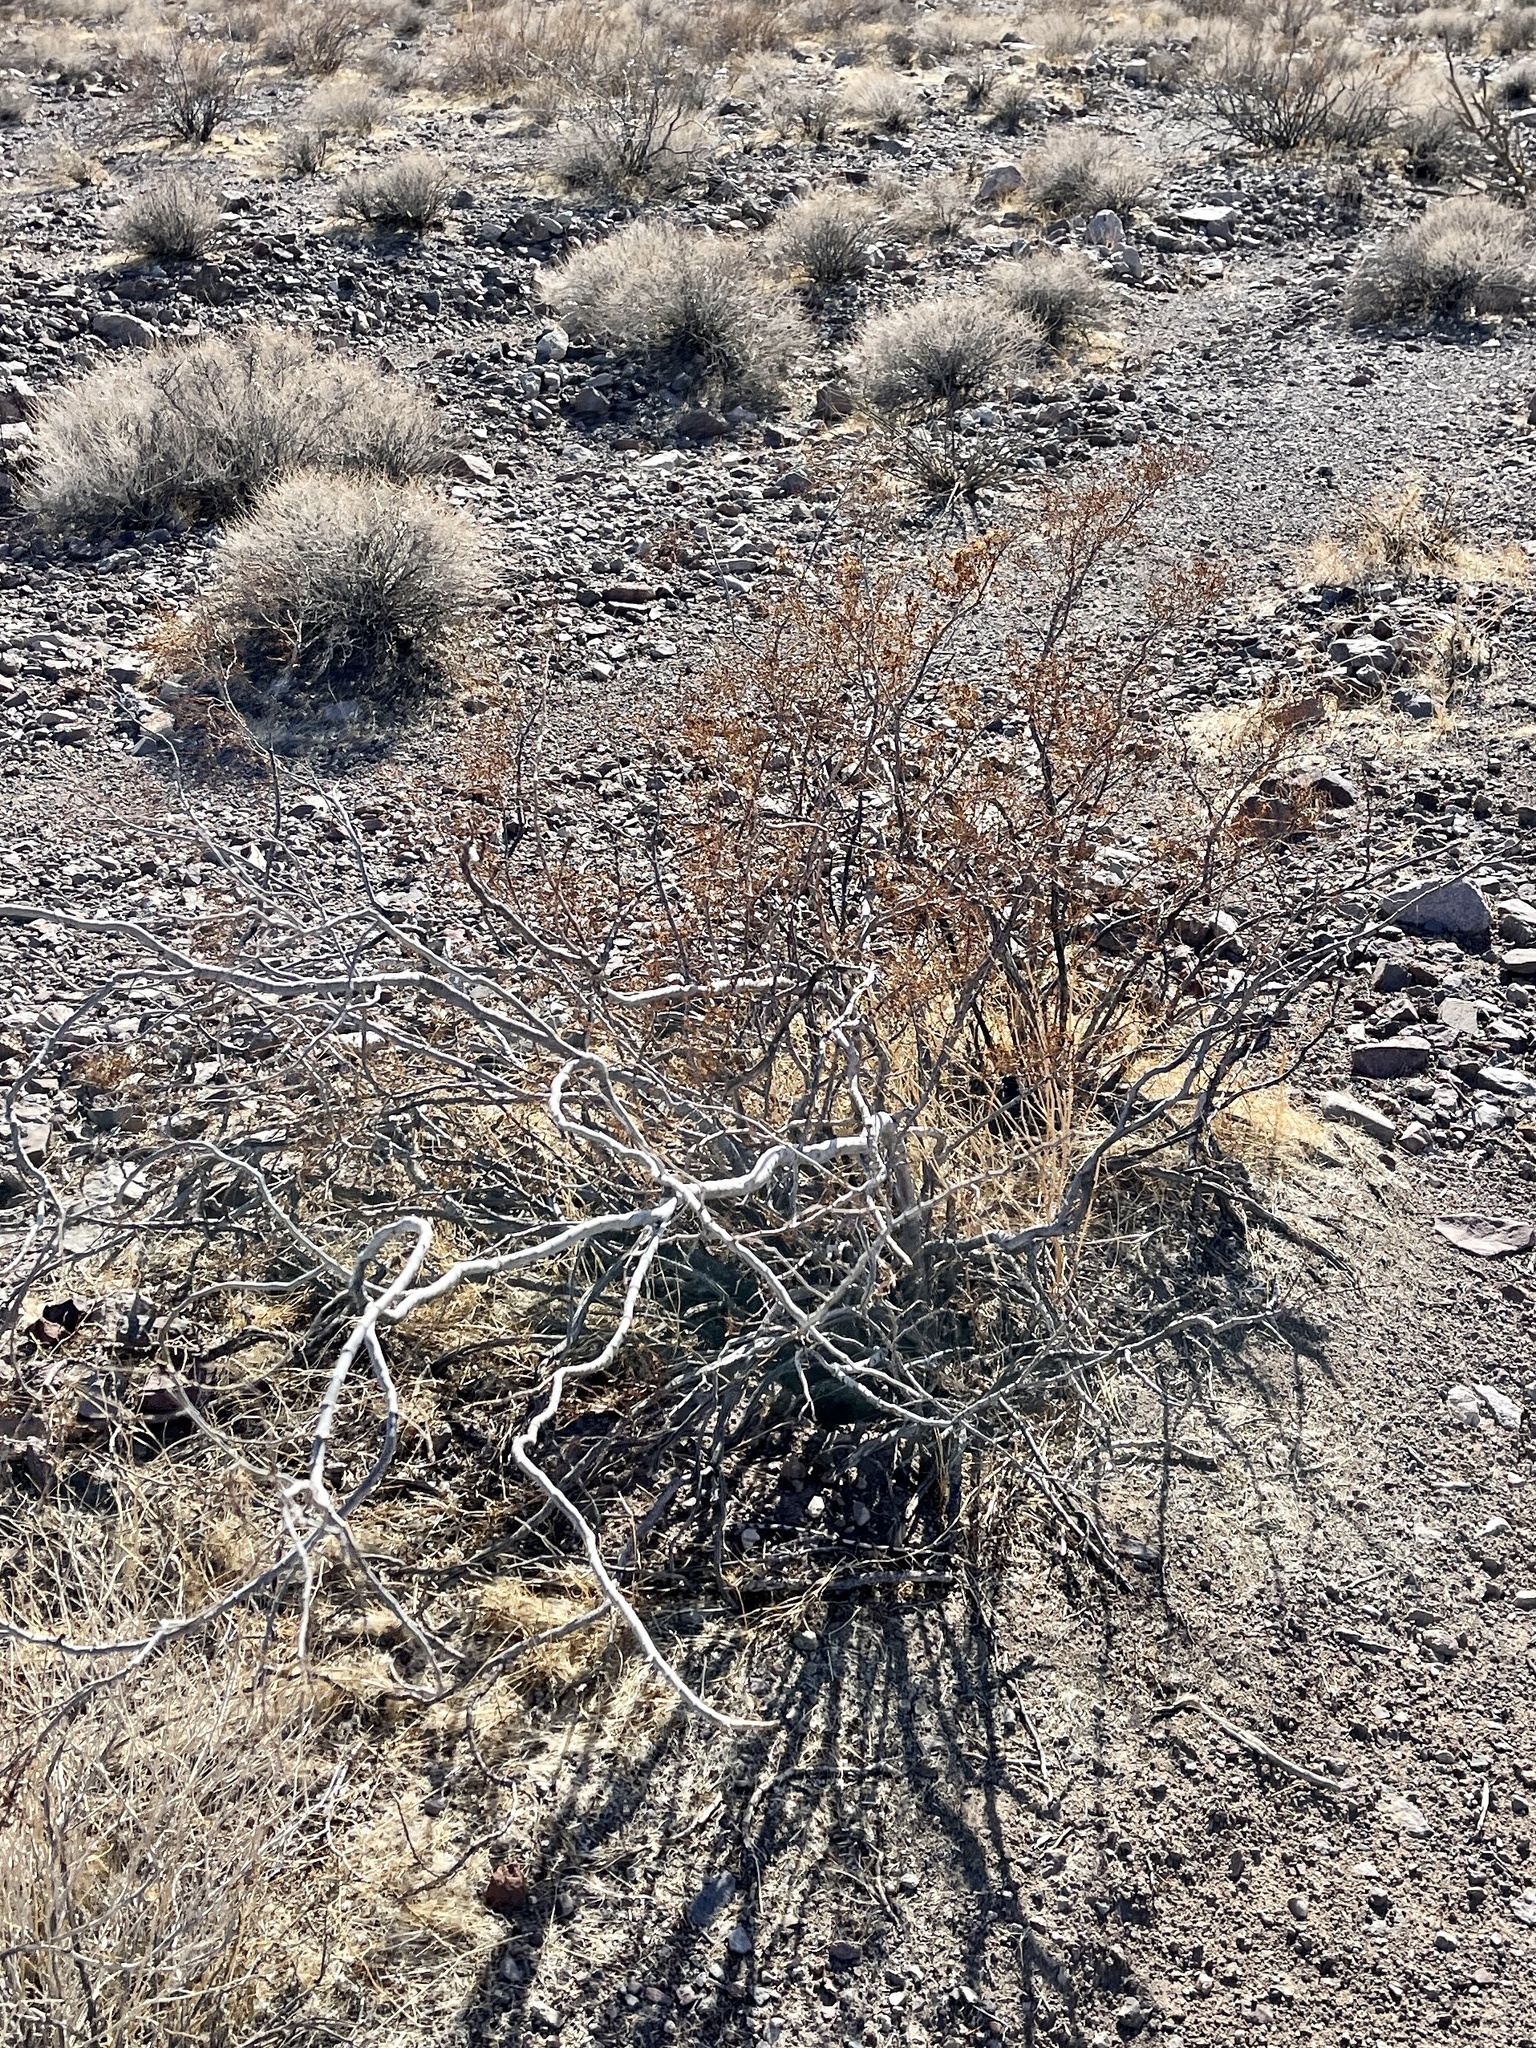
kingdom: Plantae
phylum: Tracheophyta
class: Magnoliopsida
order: Zygophyllales
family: Zygophyllaceae
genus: Larrea
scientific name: Larrea tridentata
